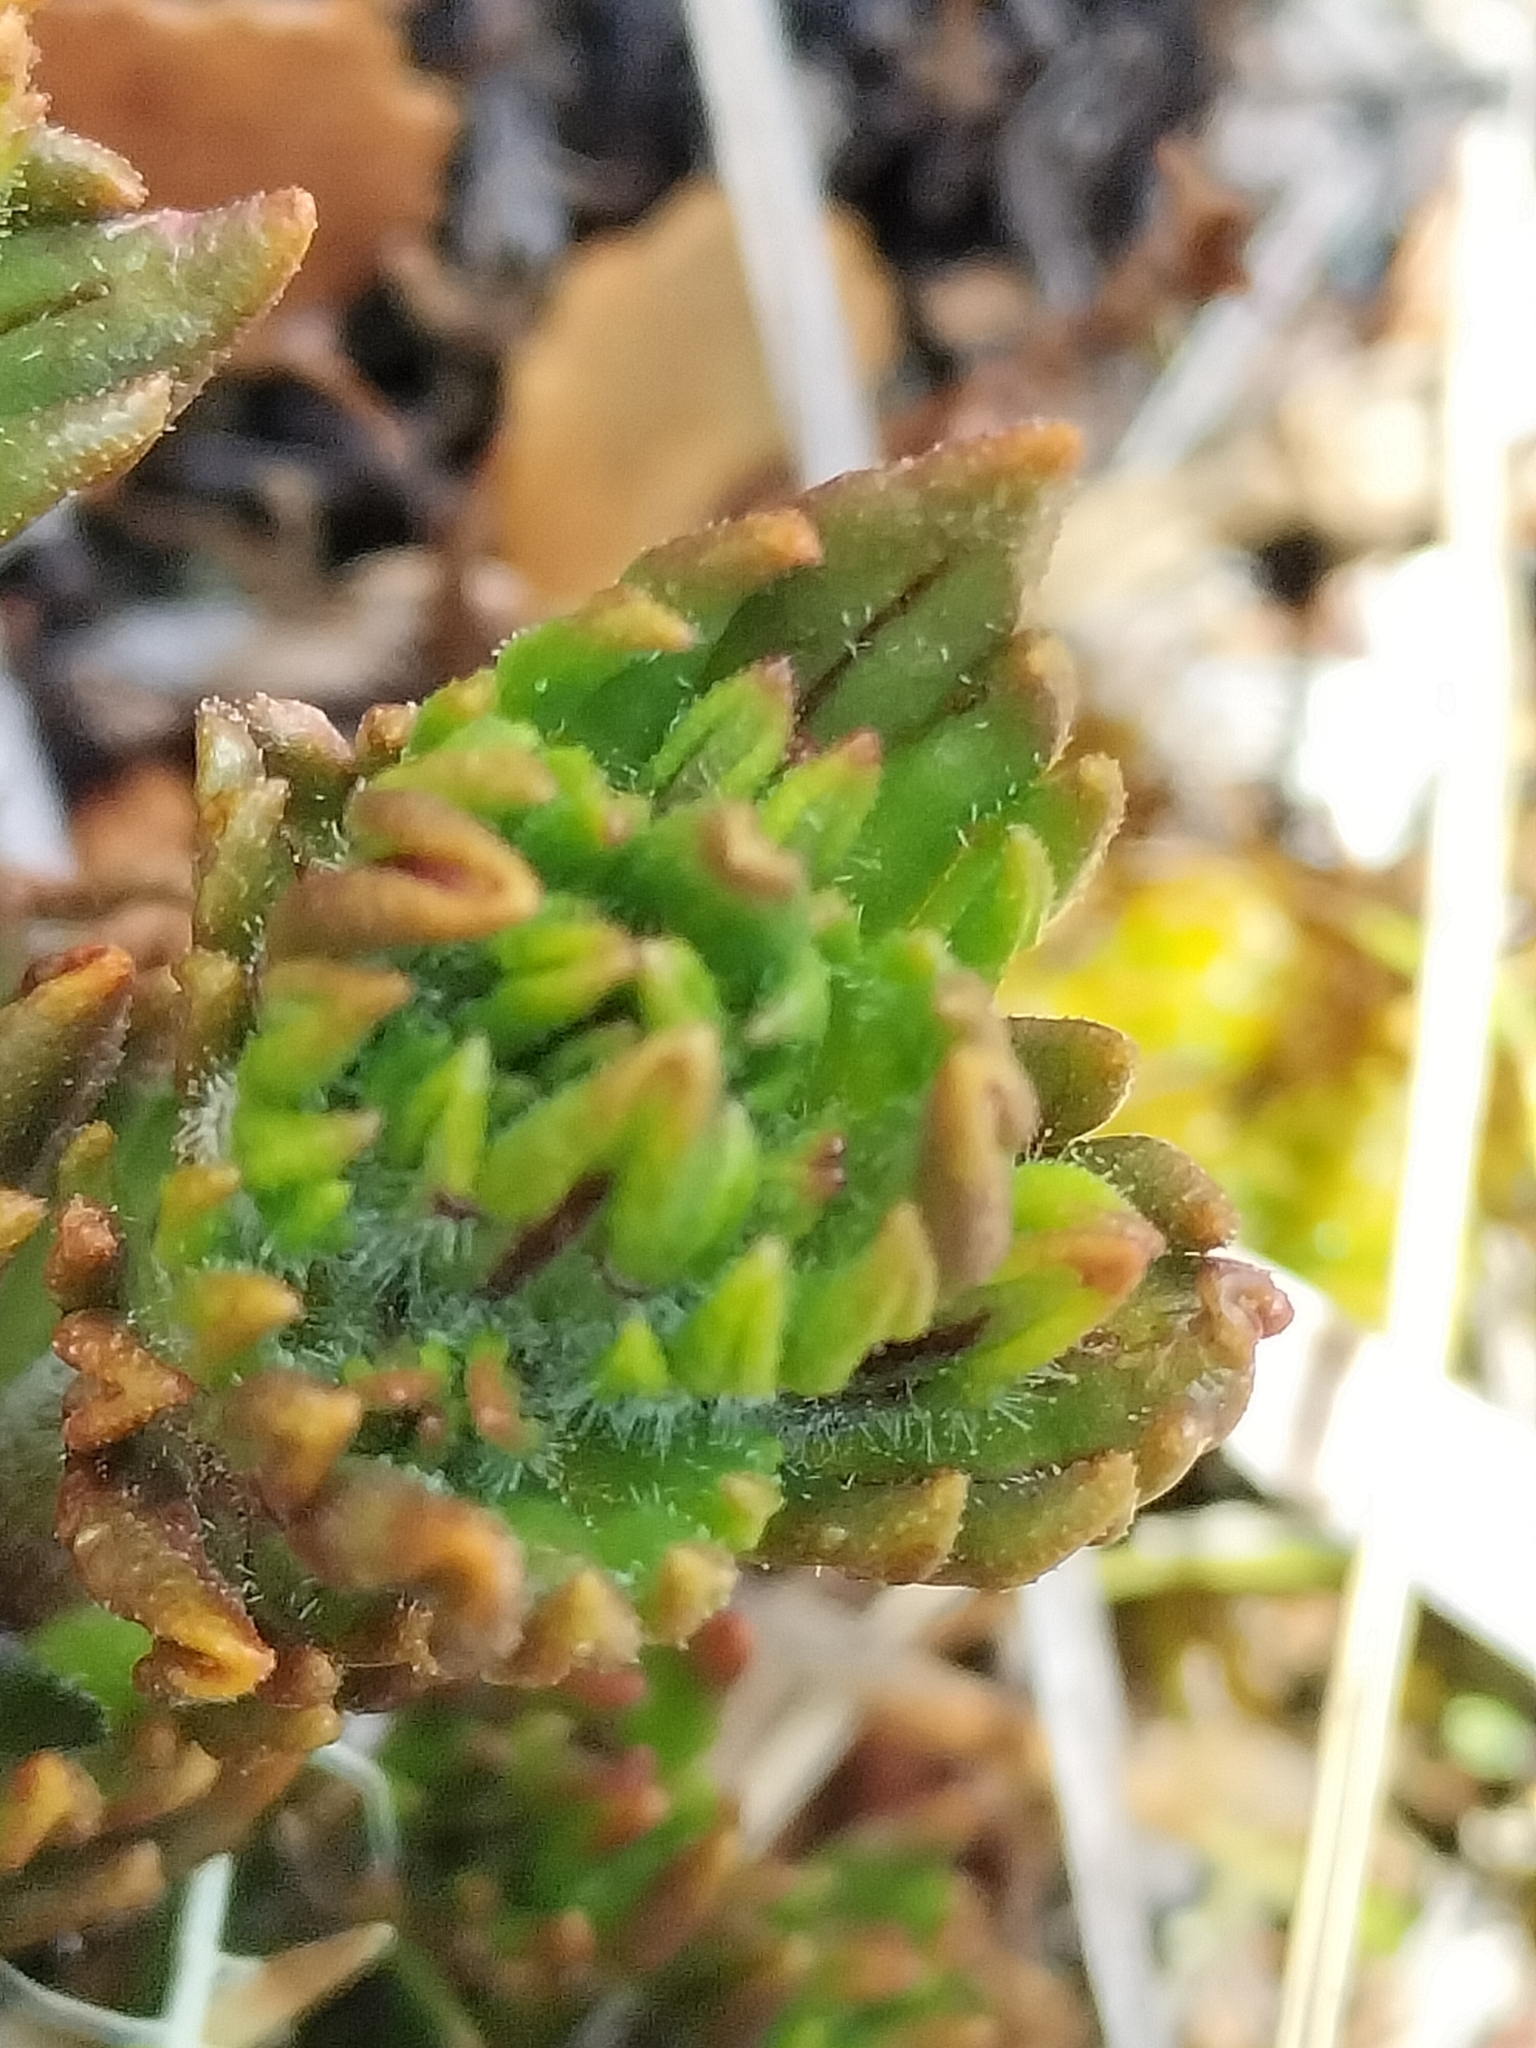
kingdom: Plantae
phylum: Tracheophyta
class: Magnoliopsida
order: Lamiales
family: Orobanchaceae
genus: Euphrasia
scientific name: Euphrasia townsonii
